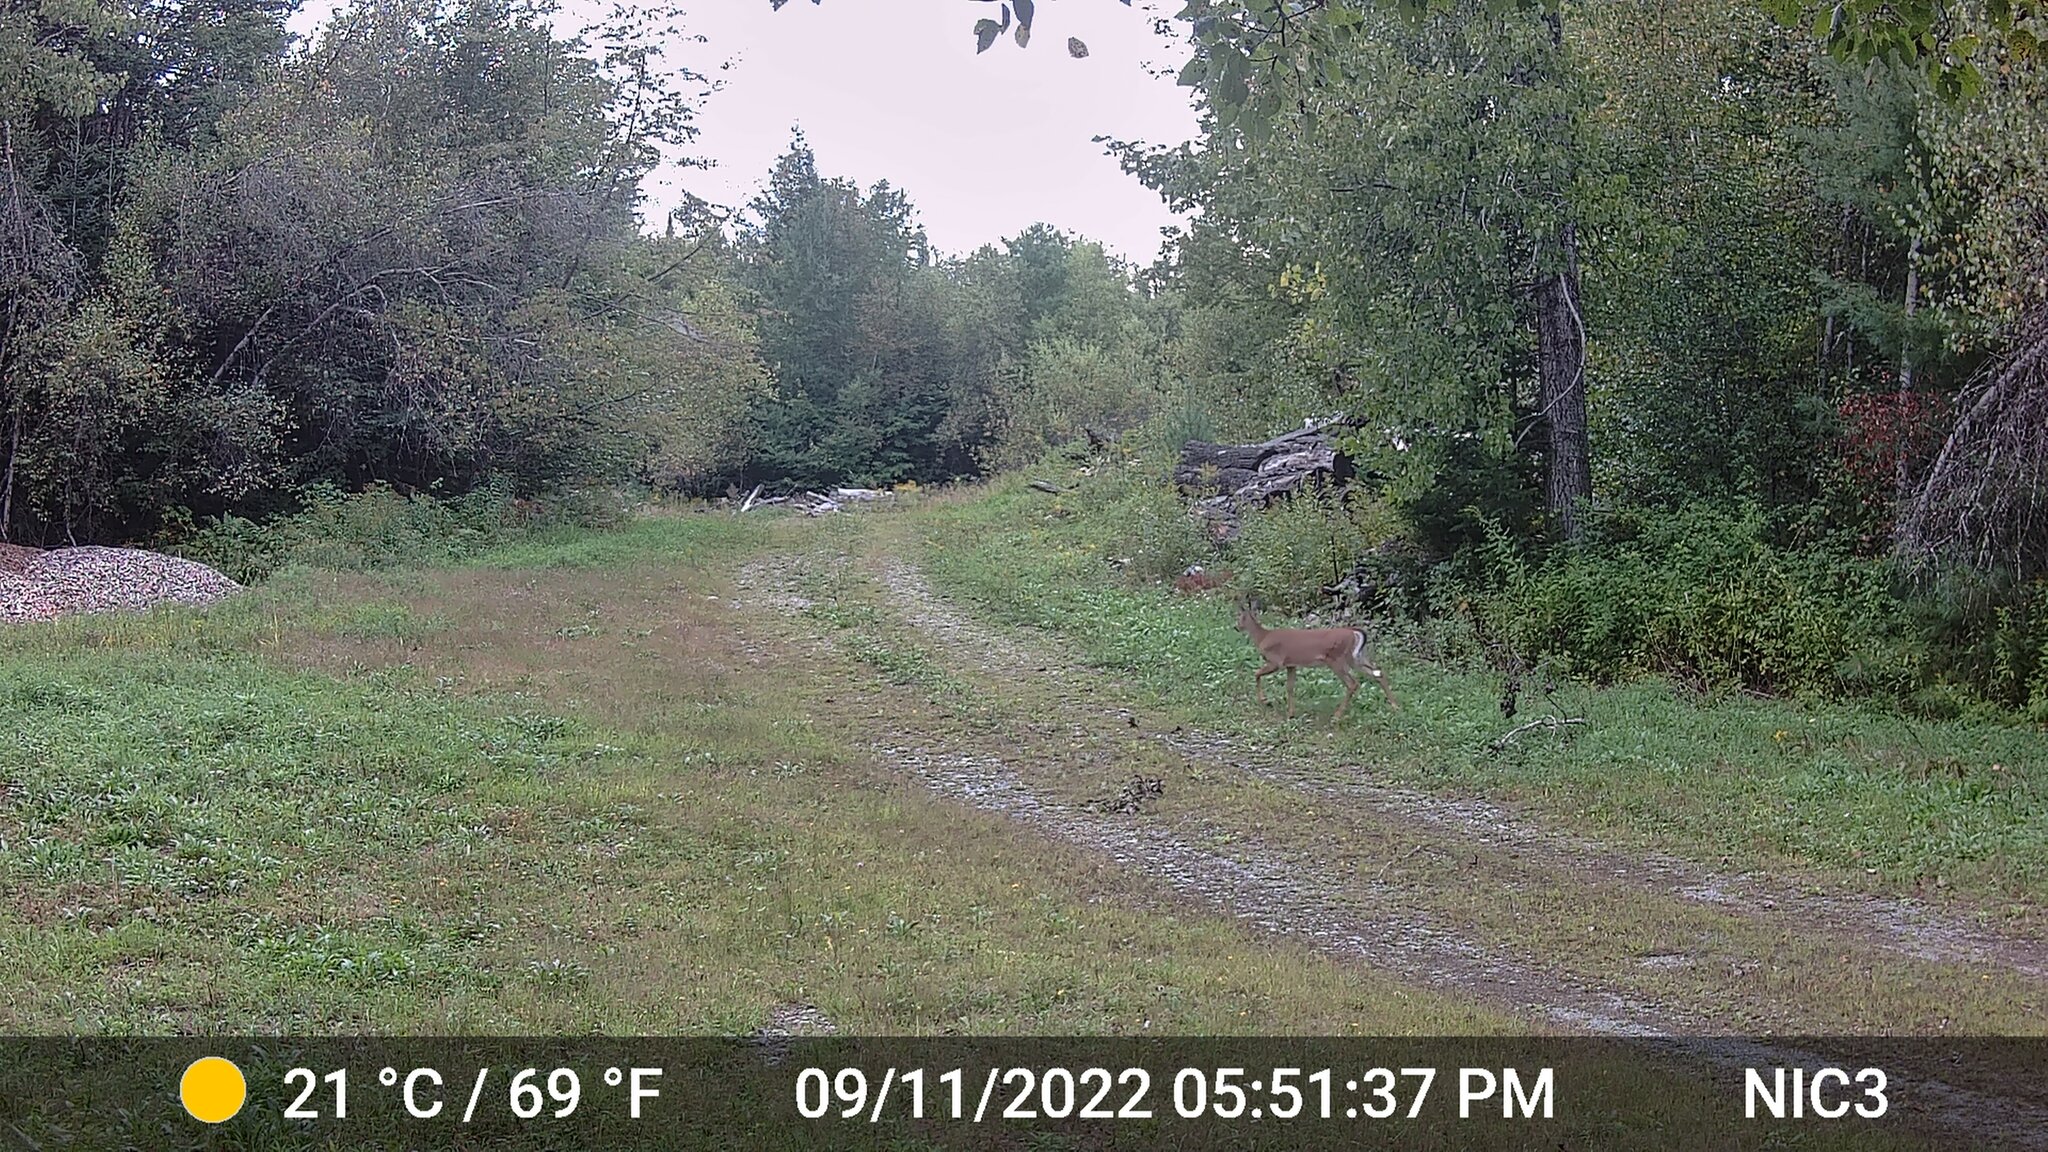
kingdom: Animalia
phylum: Chordata
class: Mammalia
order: Artiodactyla
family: Cervidae
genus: Odocoileus
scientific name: Odocoileus virginianus
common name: White-tailed deer
